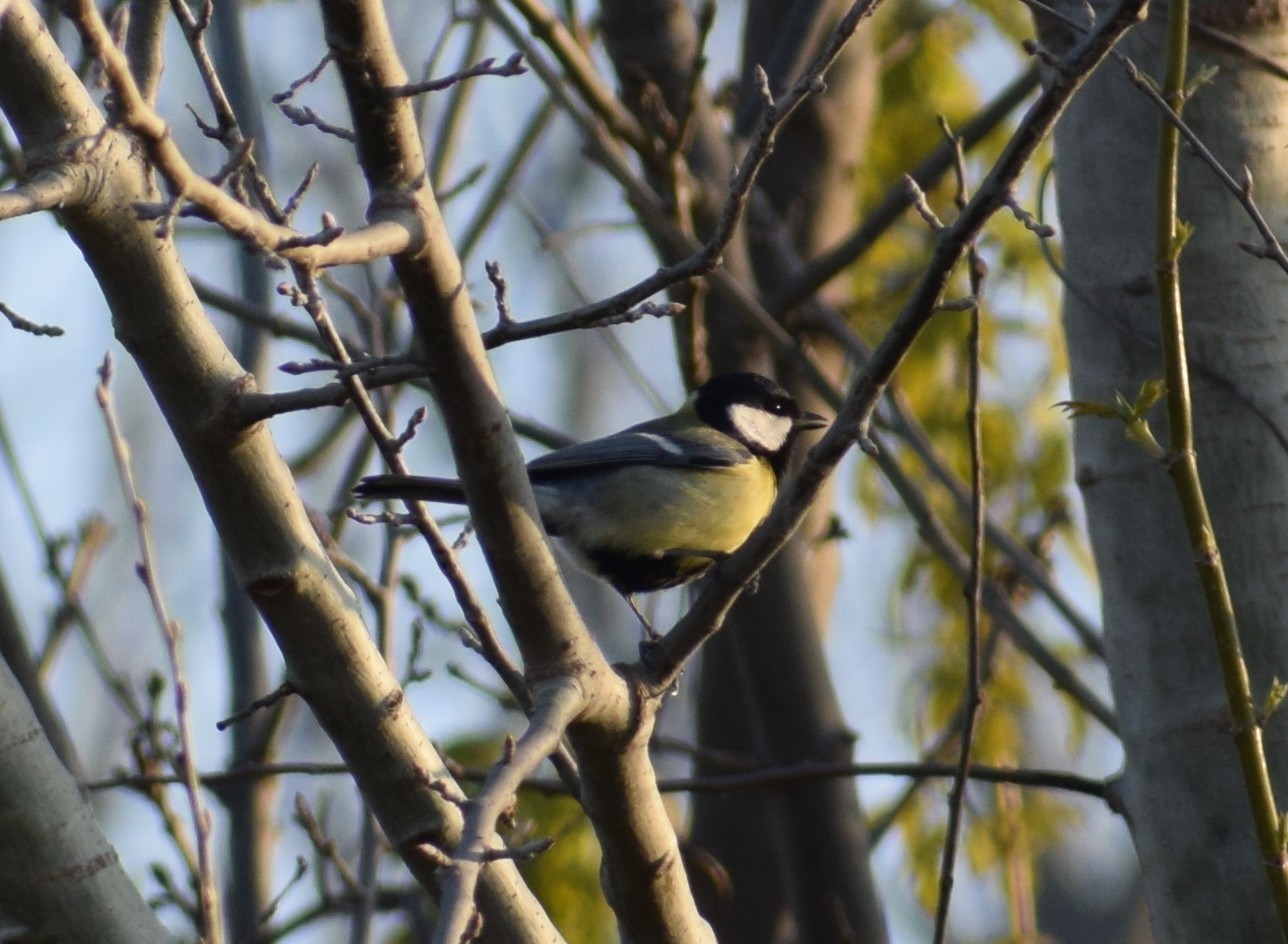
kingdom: Animalia
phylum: Chordata
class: Aves
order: Passeriformes
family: Paridae
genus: Parus
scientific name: Parus major
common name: Great tit
